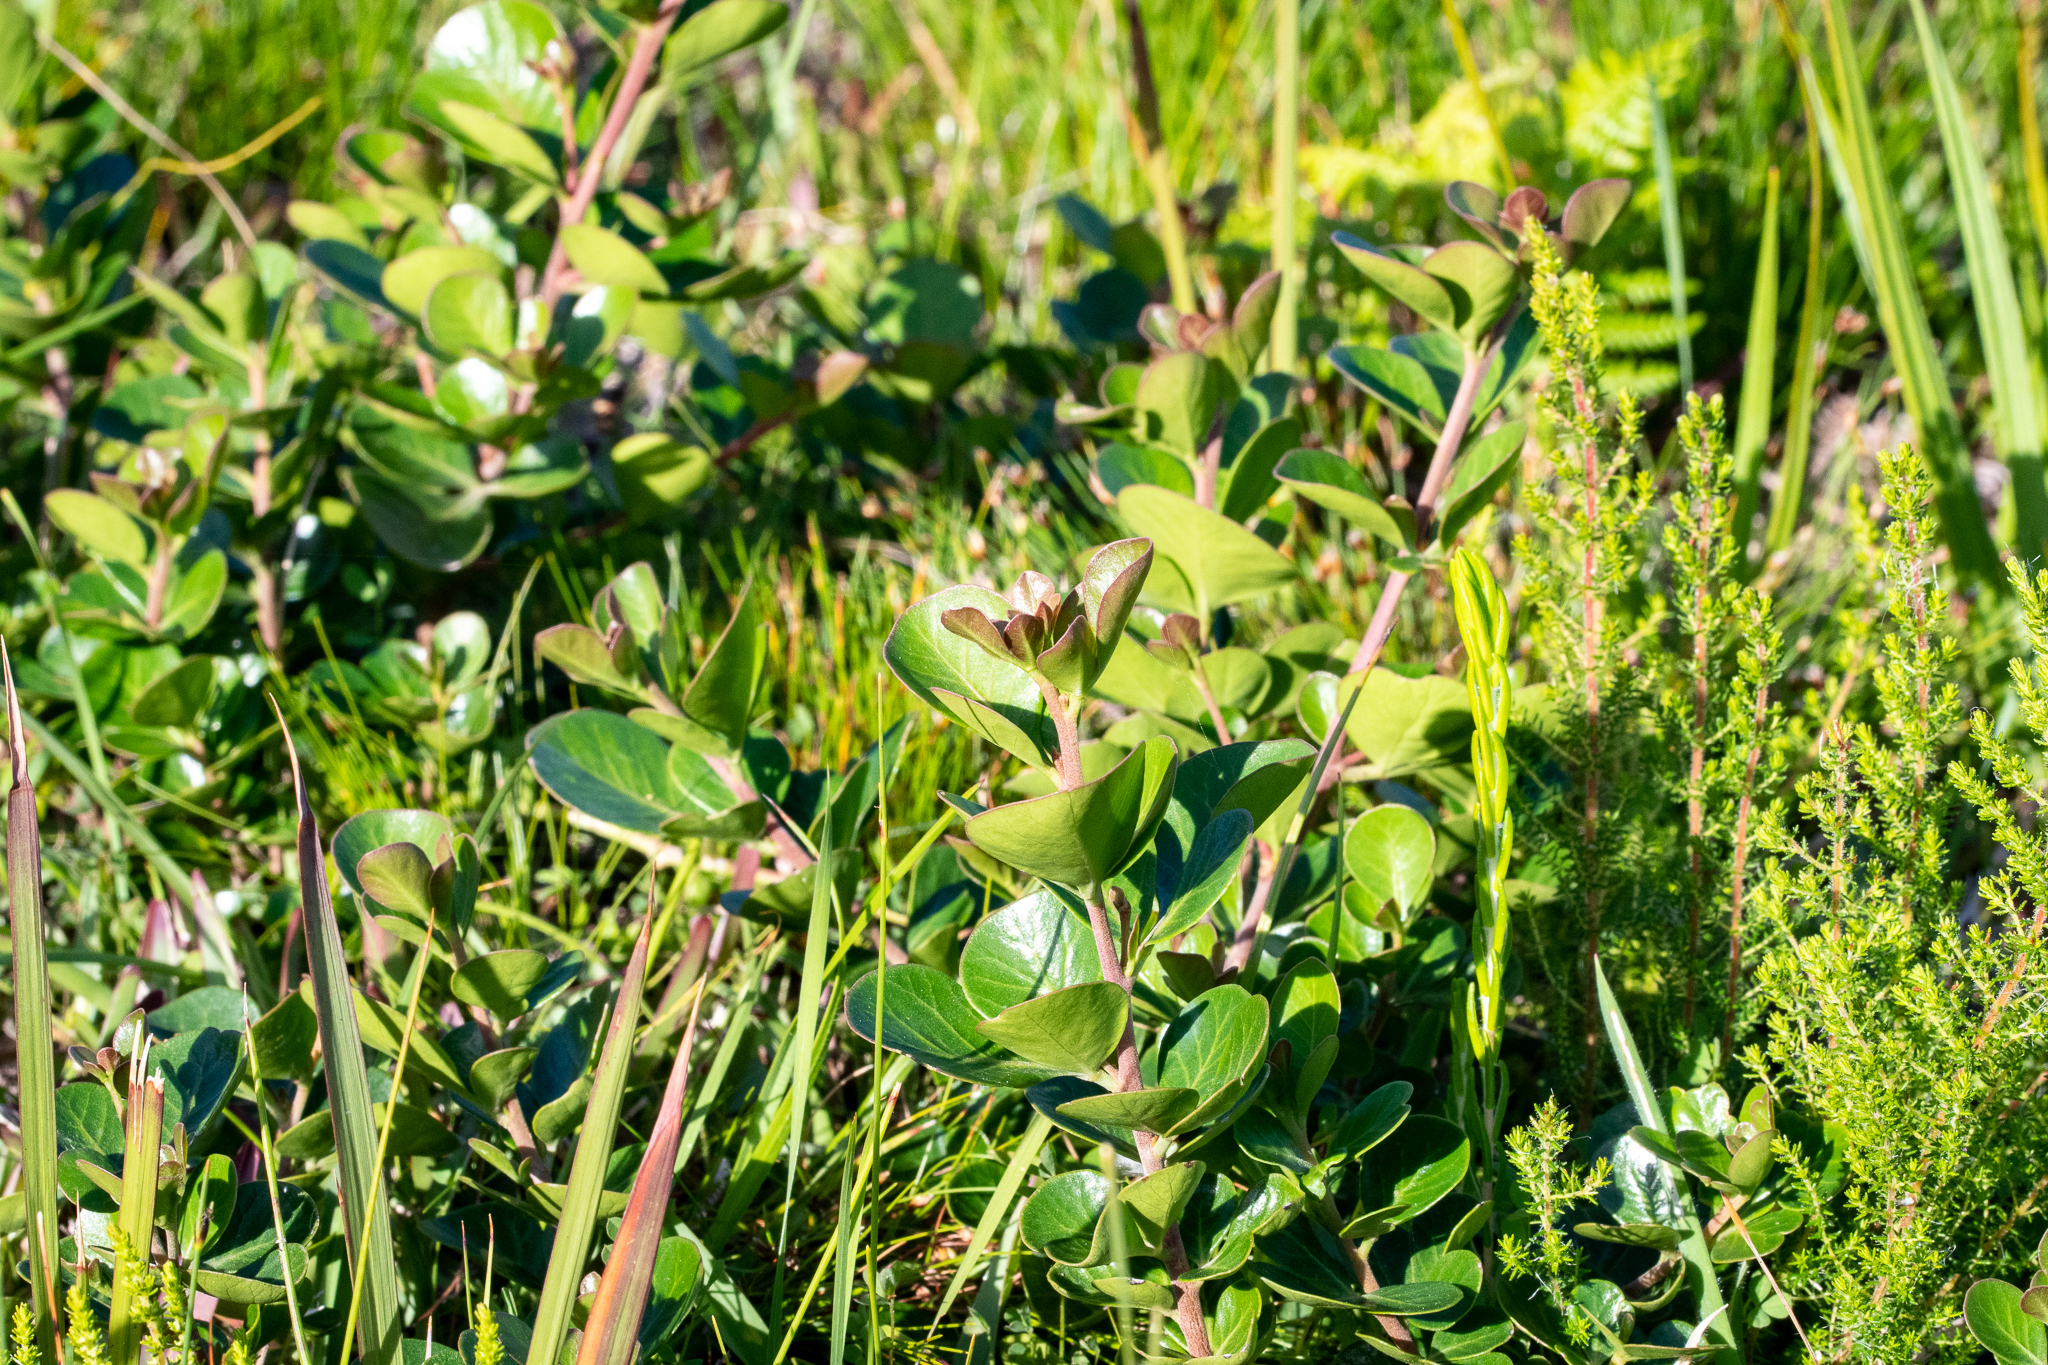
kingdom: Plantae
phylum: Tracheophyta
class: Magnoliopsida
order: Sapindales
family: Anacardiaceae
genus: Searsia
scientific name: Searsia lucida
